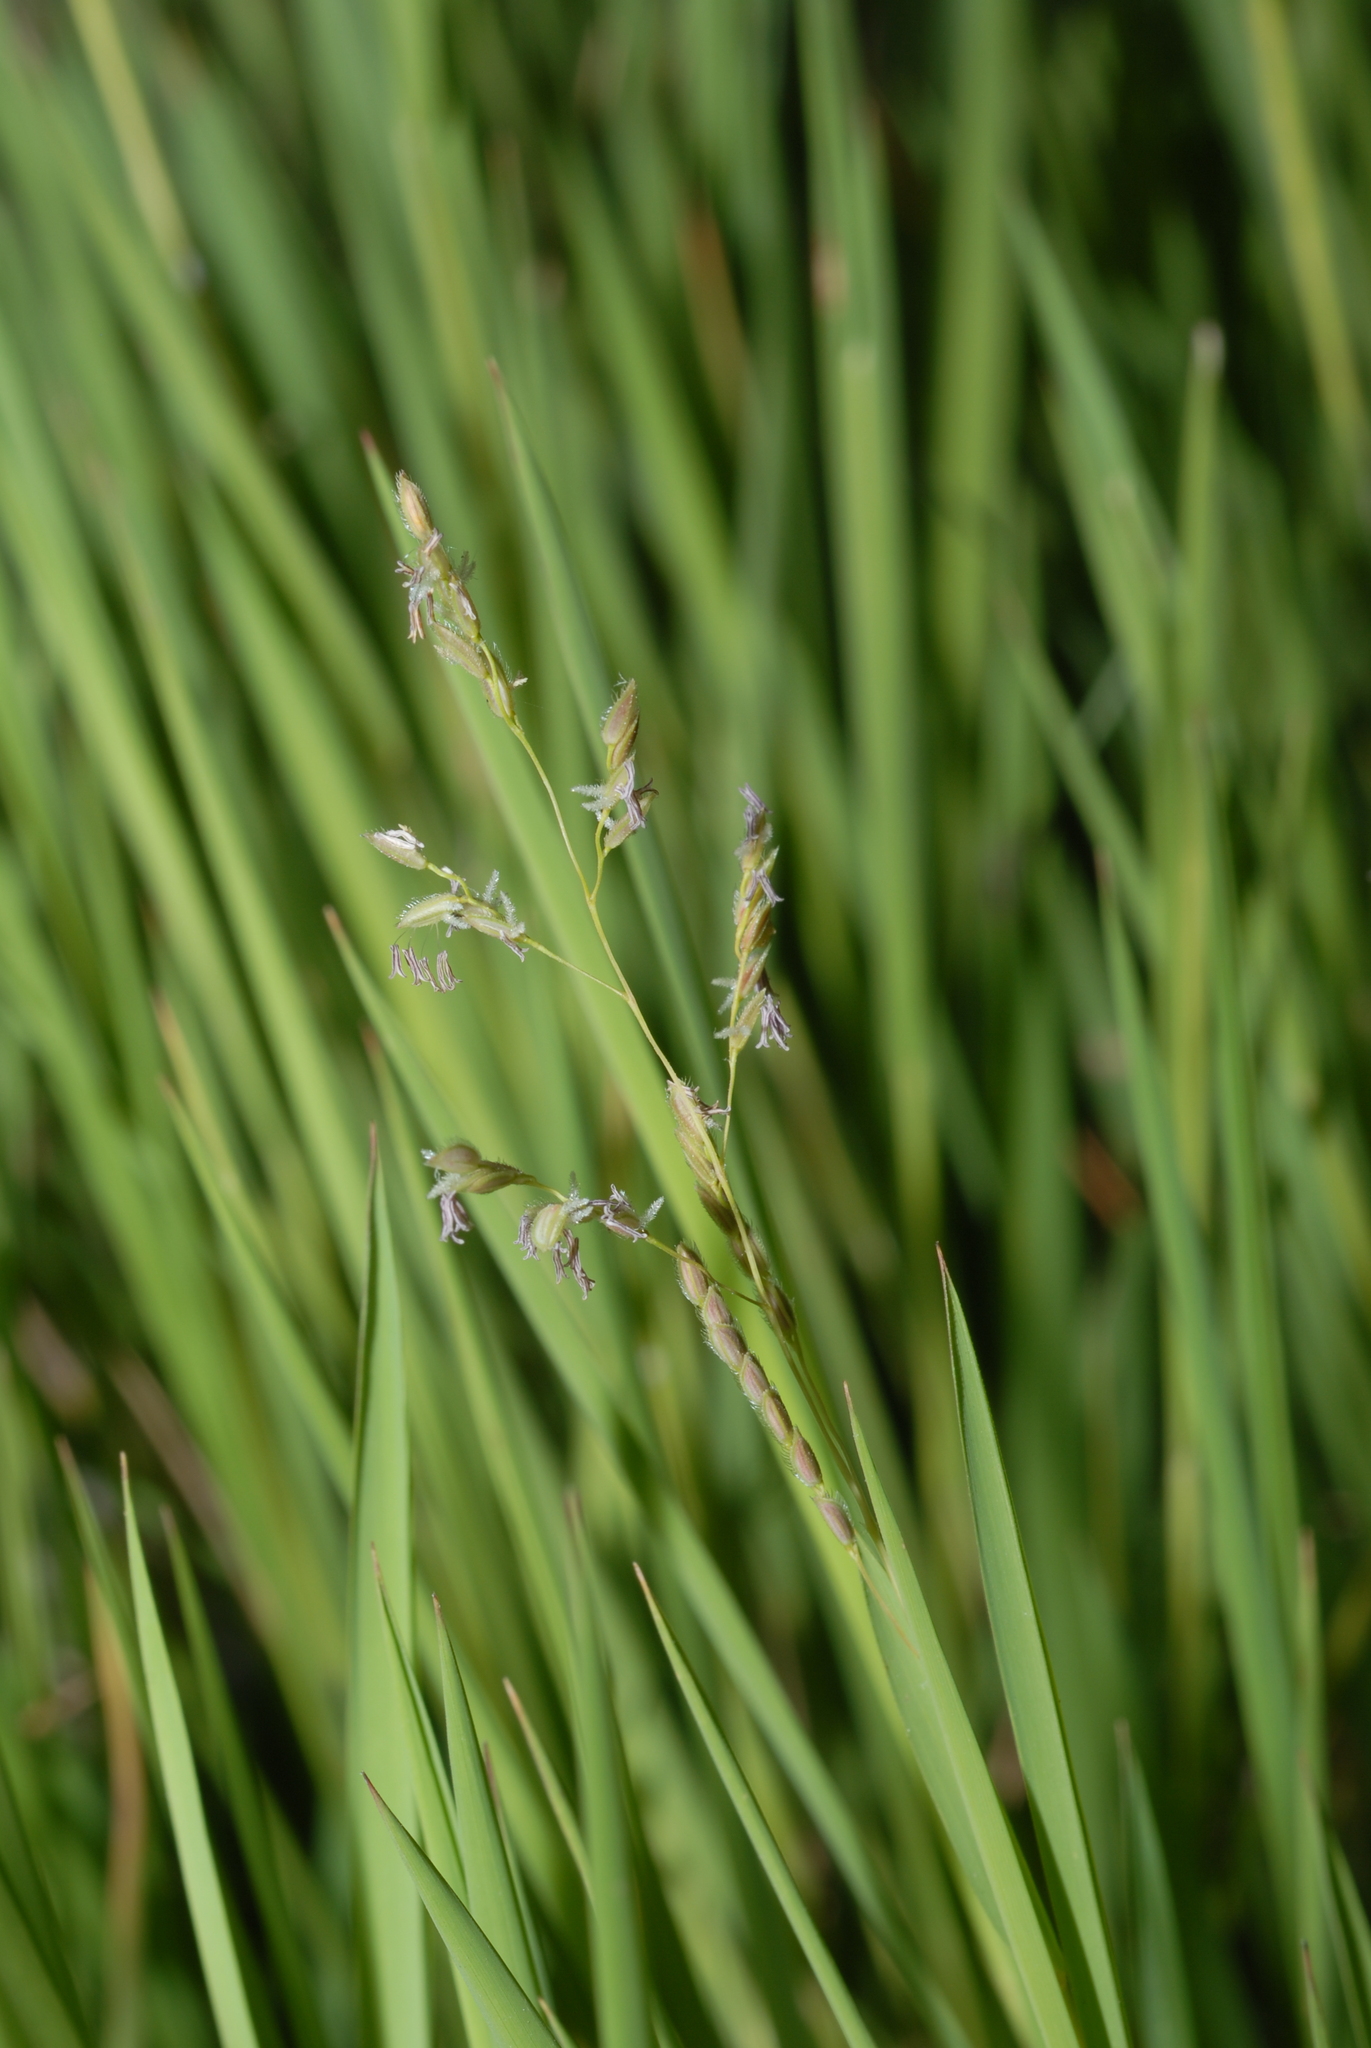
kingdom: Plantae
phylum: Tracheophyta
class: Liliopsida
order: Poales
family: Poaceae
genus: Leersia
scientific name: Leersia hexandra
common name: Southern cut grass
